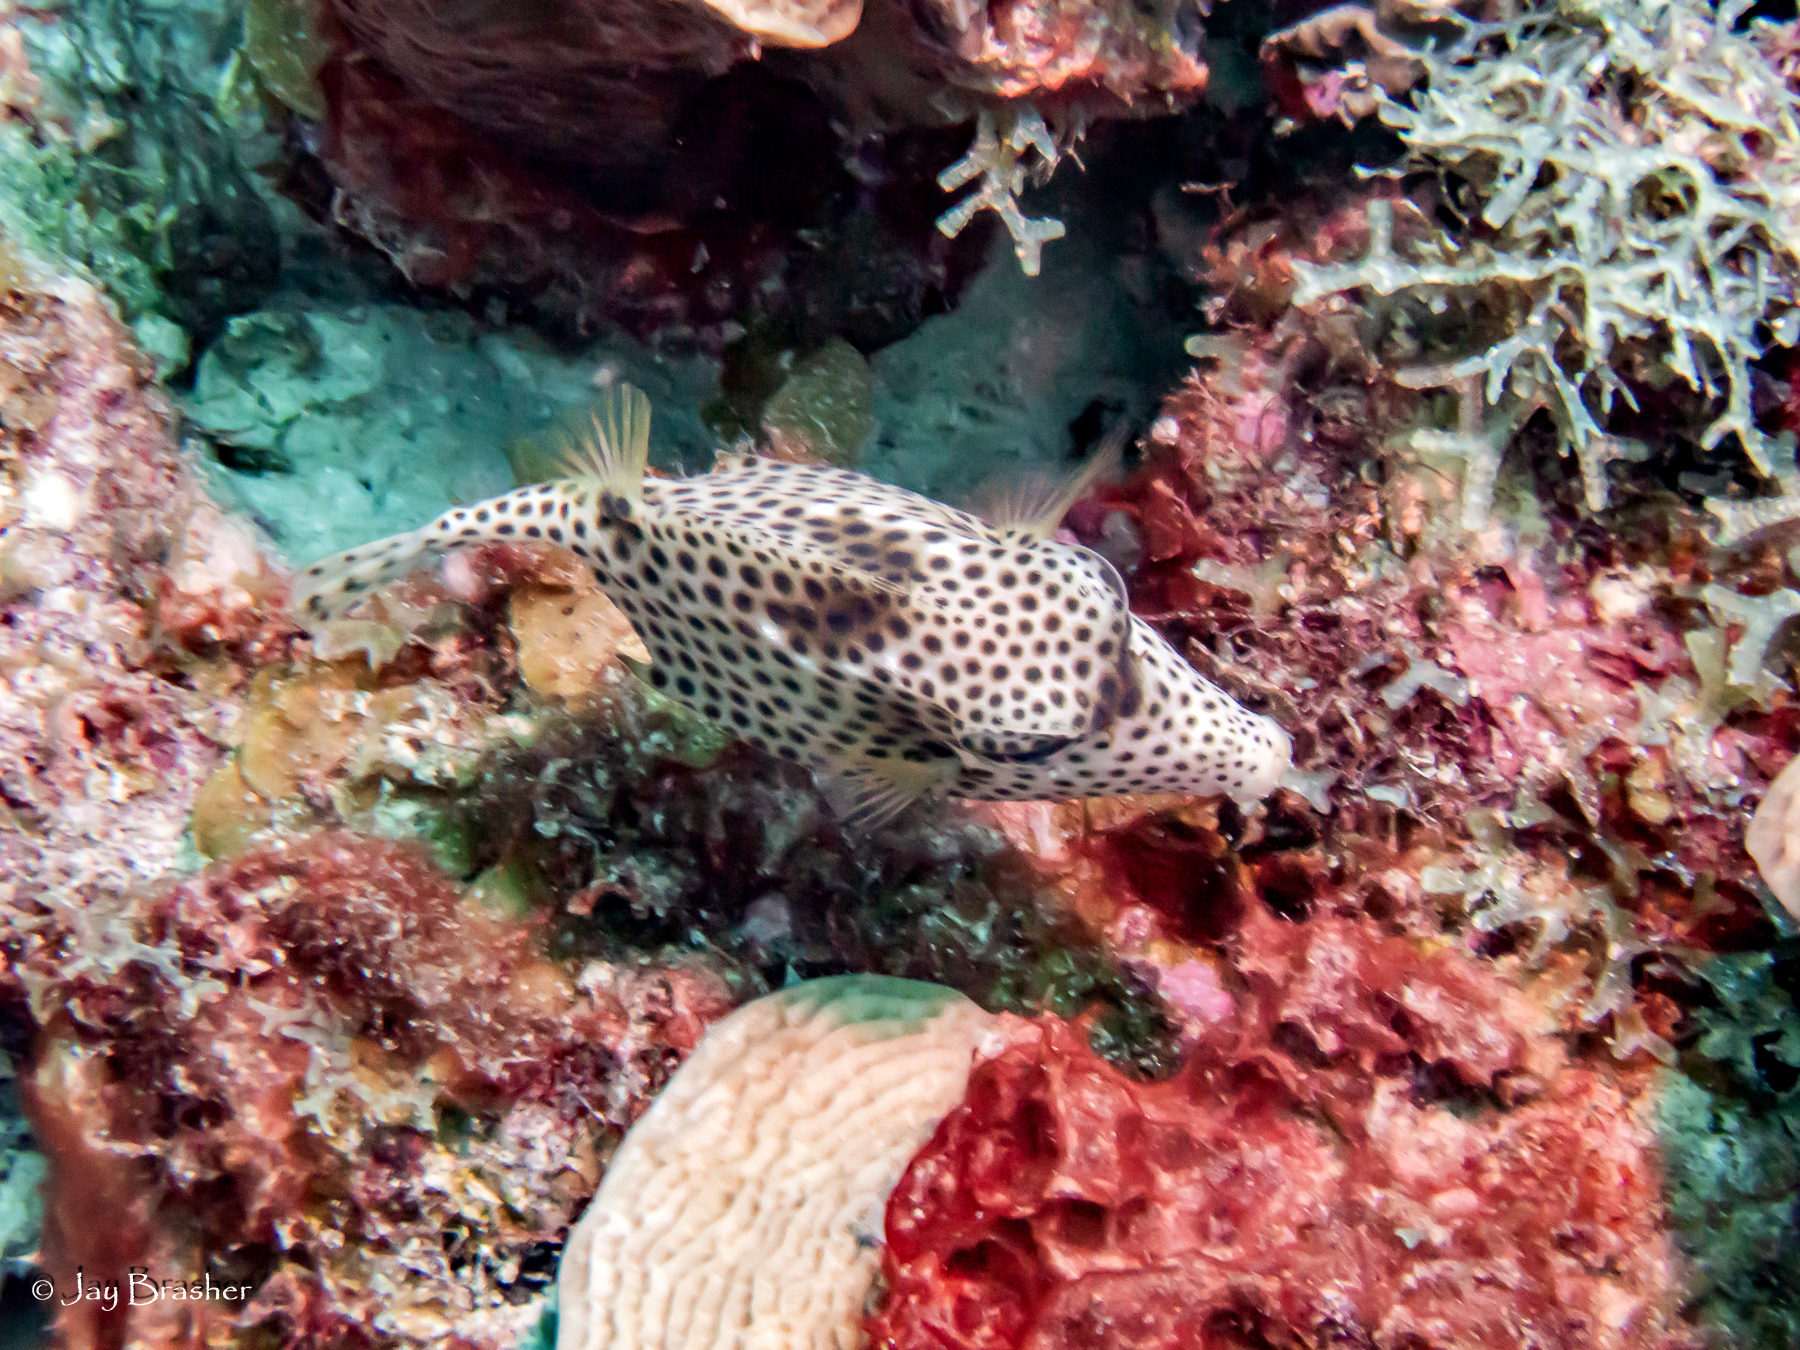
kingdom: Animalia
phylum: Chordata
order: Tetraodontiformes
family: Ostraciidae
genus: Lactophrys
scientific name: Lactophrys bicaudalis
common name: Spotted trunkfish
